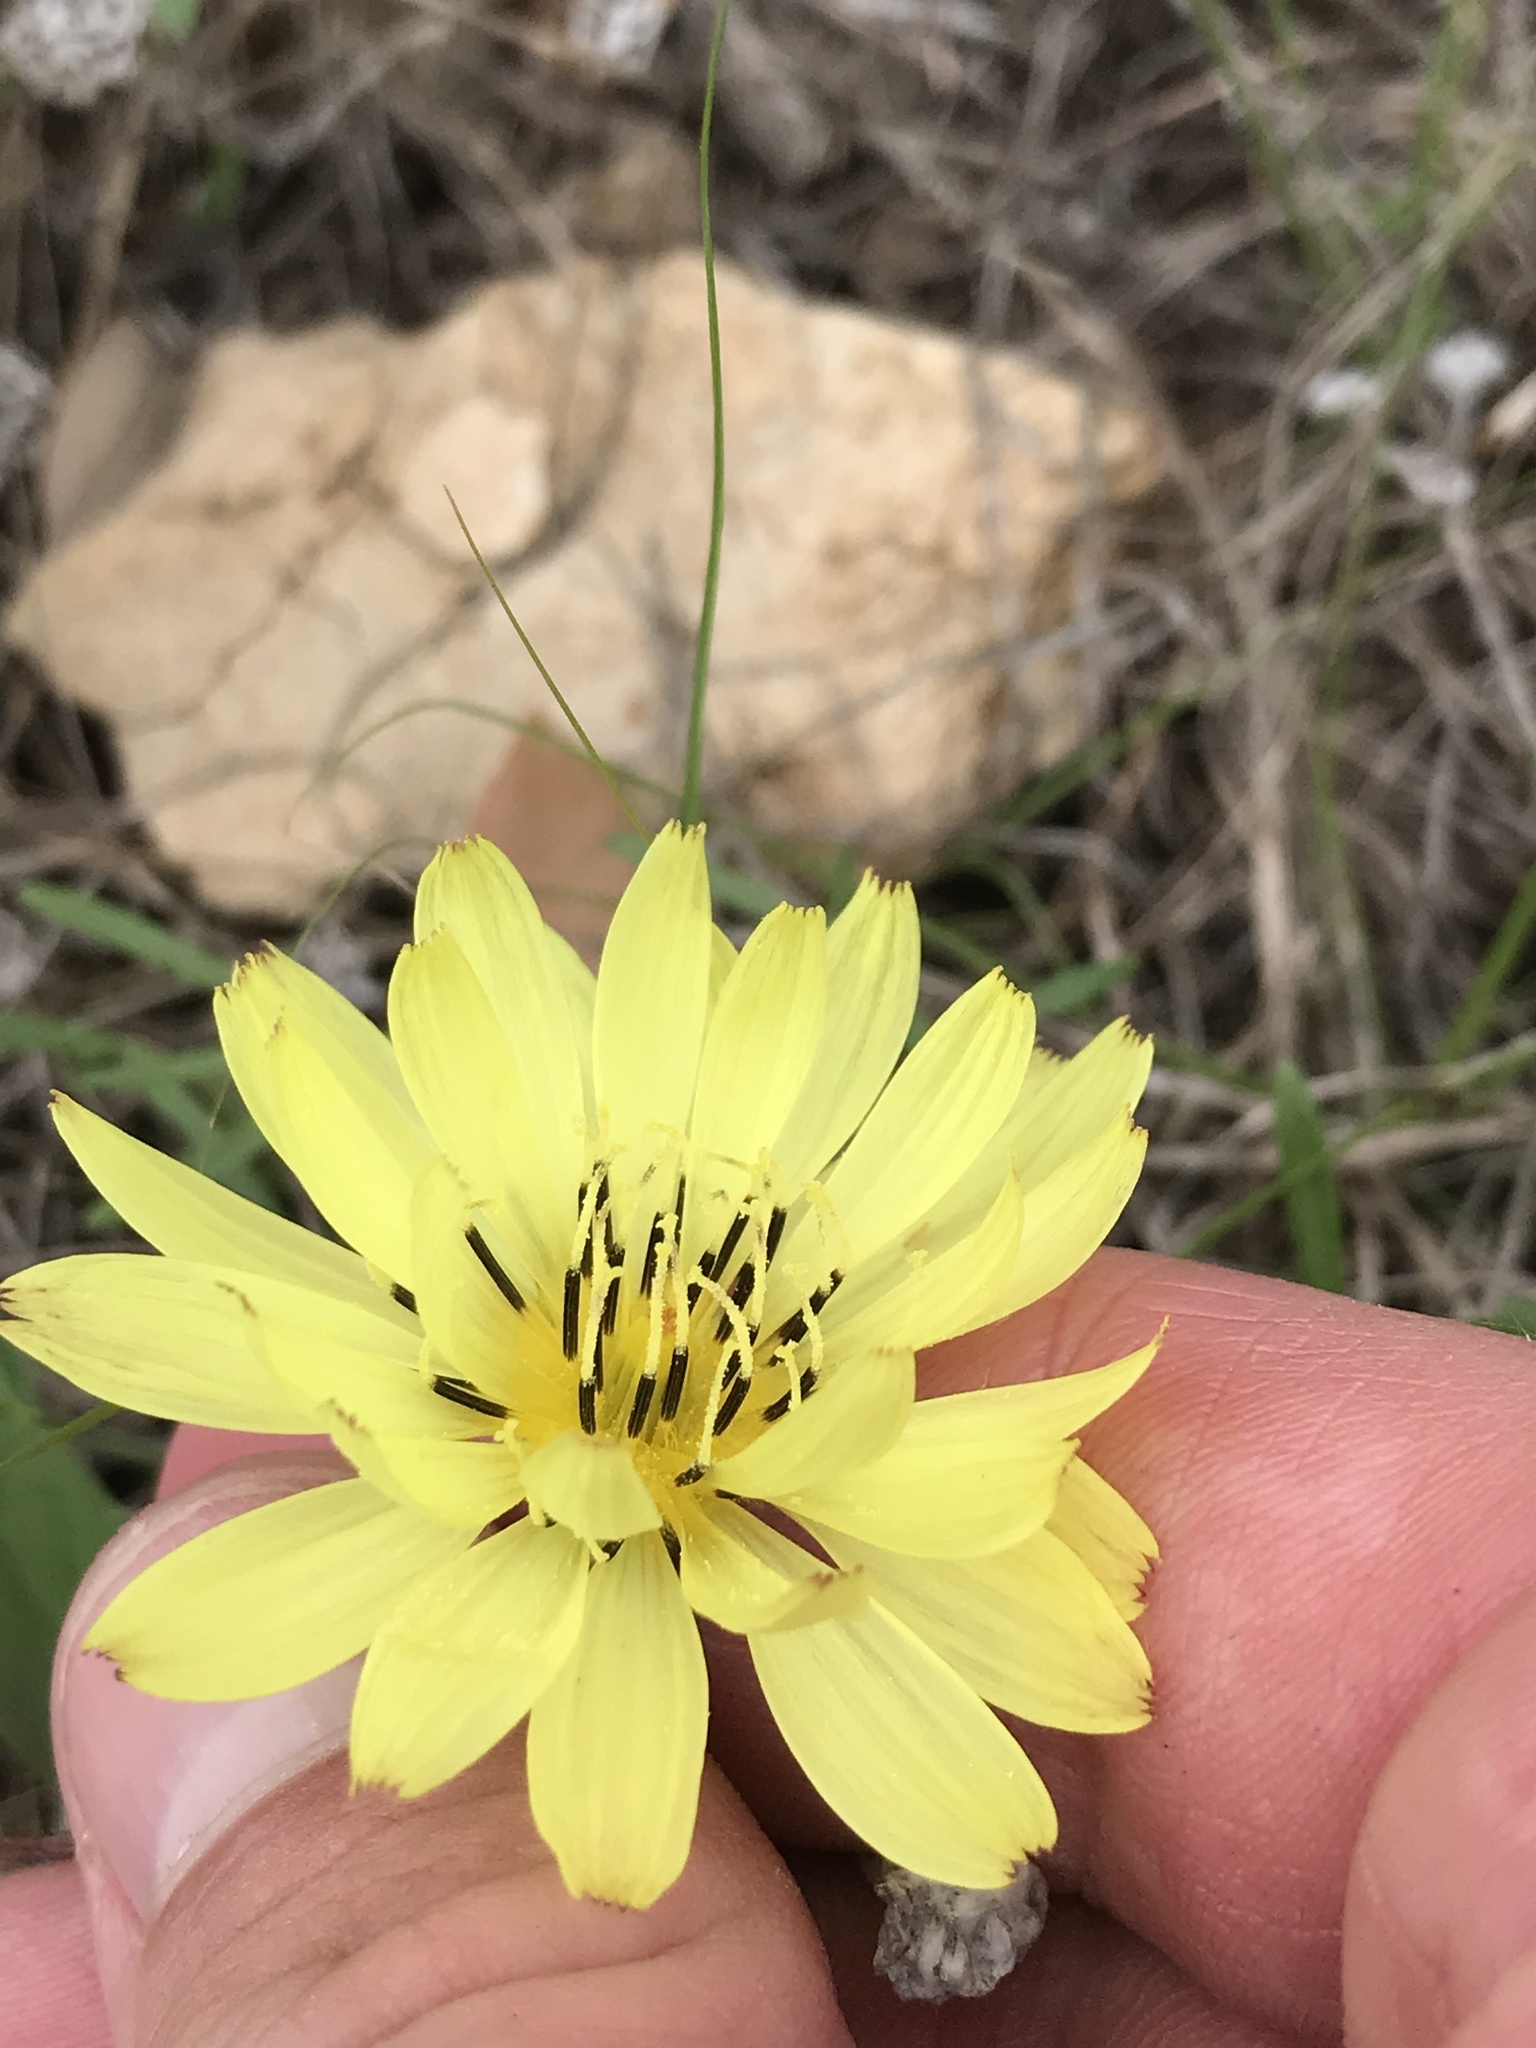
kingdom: Plantae
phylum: Tracheophyta
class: Magnoliopsida
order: Asterales
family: Asteraceae
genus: Pyrrhopappus
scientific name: Pyrrhopappus carolinianus
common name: Carolina desert-chicory
